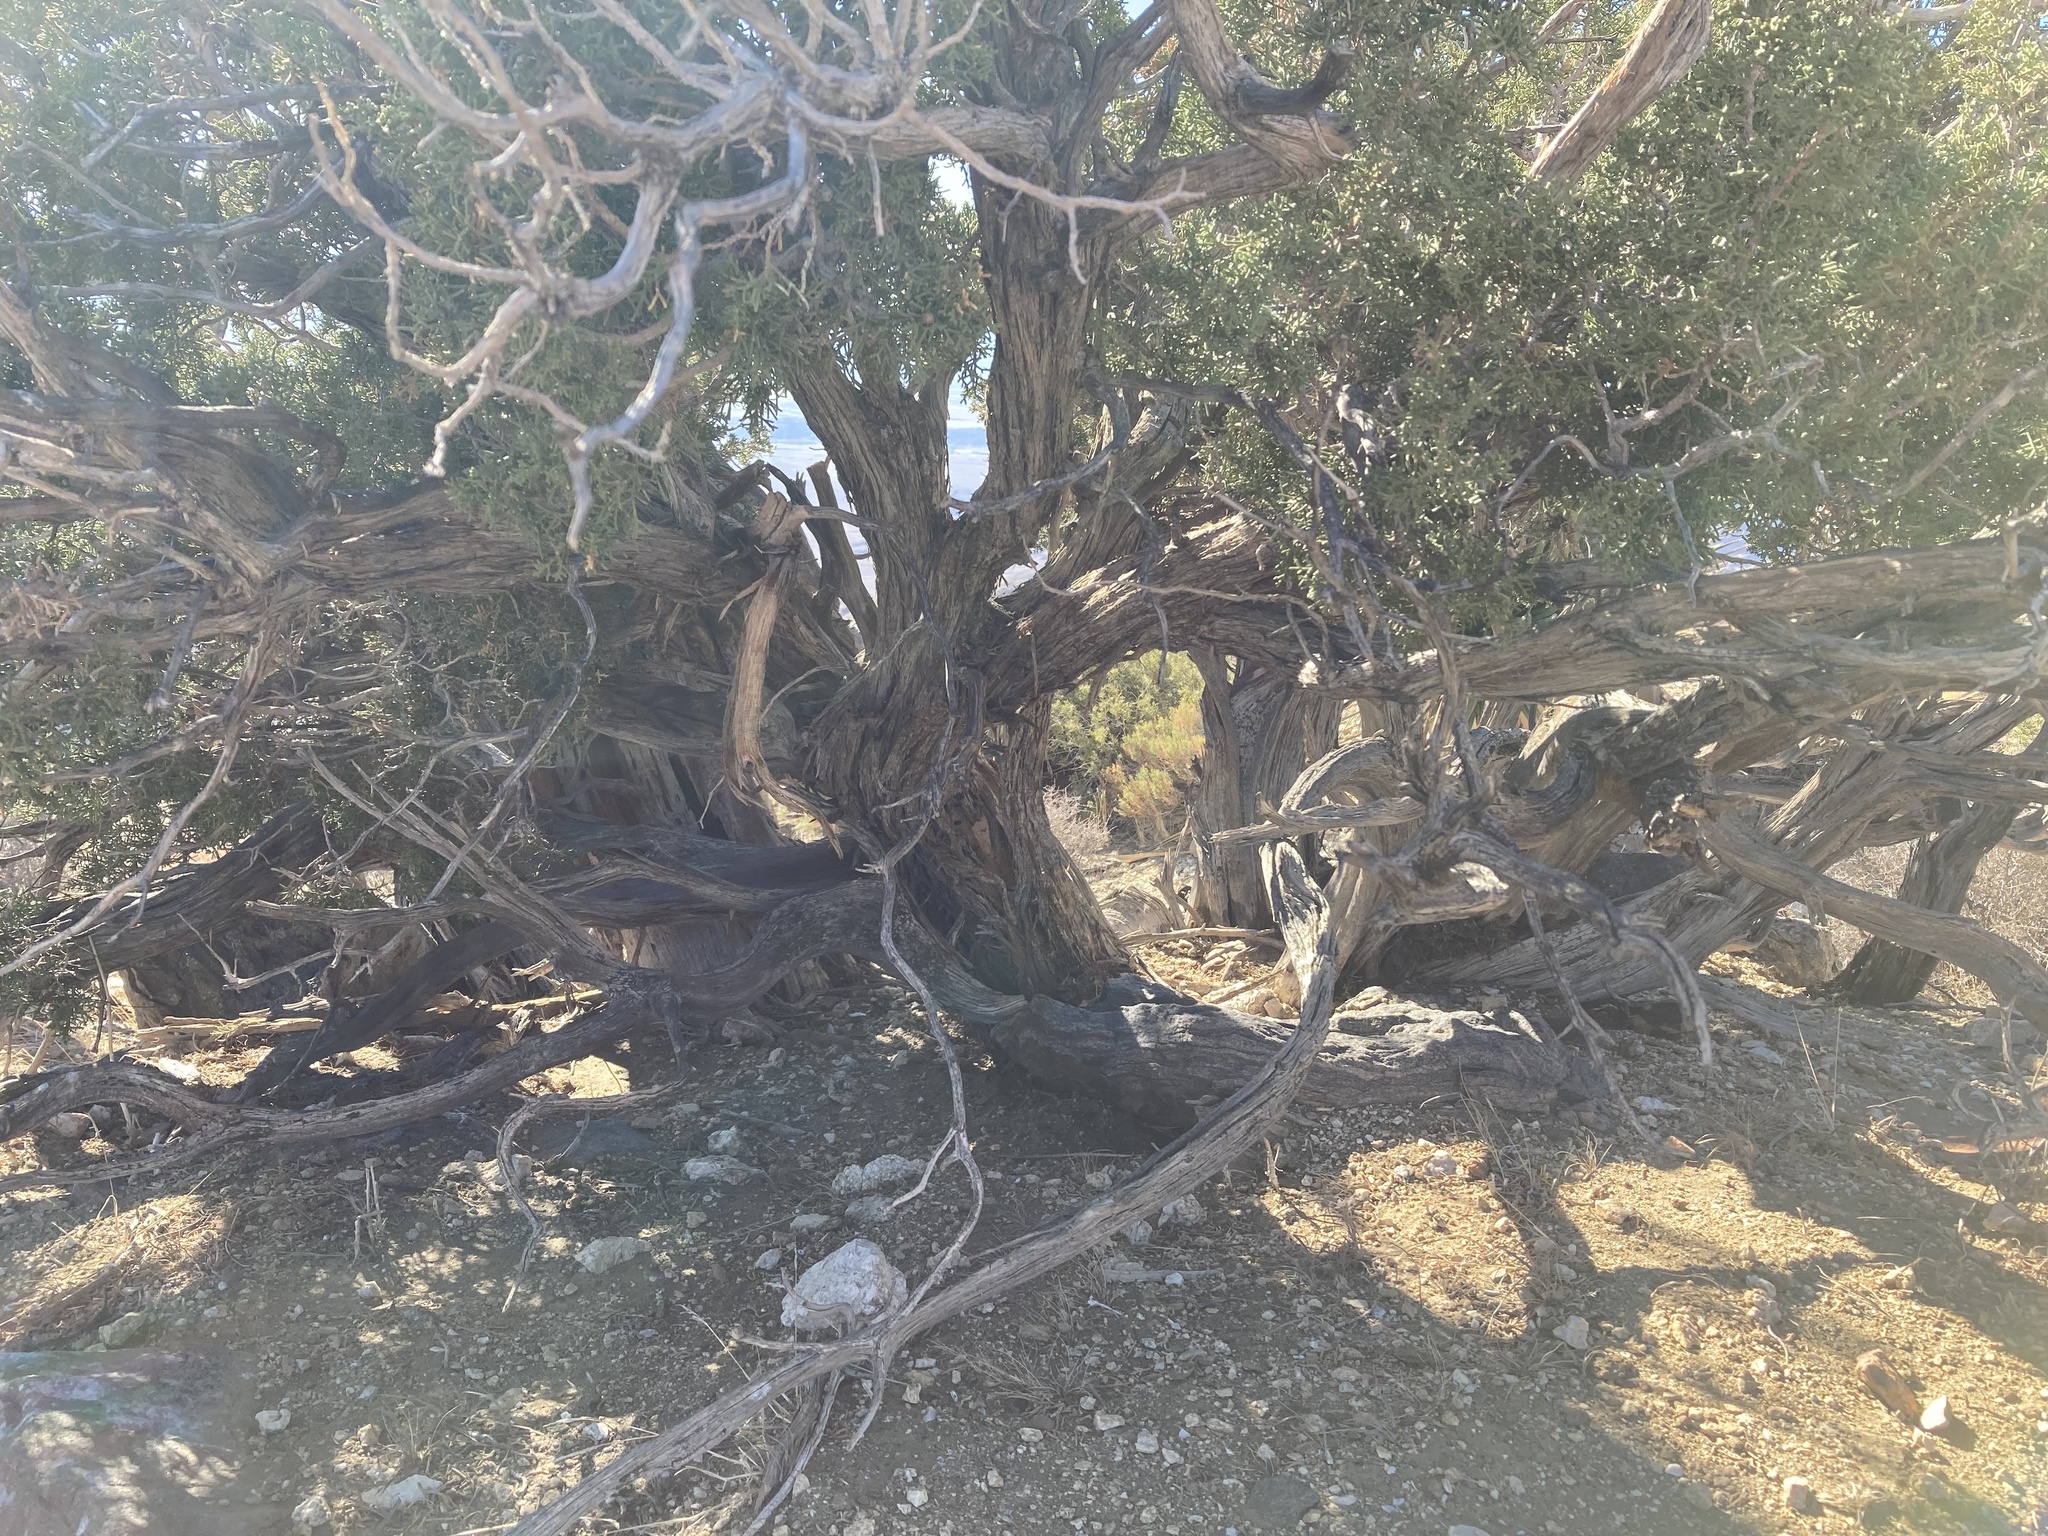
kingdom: Plantae
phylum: Tracheophyta
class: Pinopsida
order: Pinales
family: Cupressaceae
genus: Juniperus
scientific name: Juniperus californica
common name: California juniper
